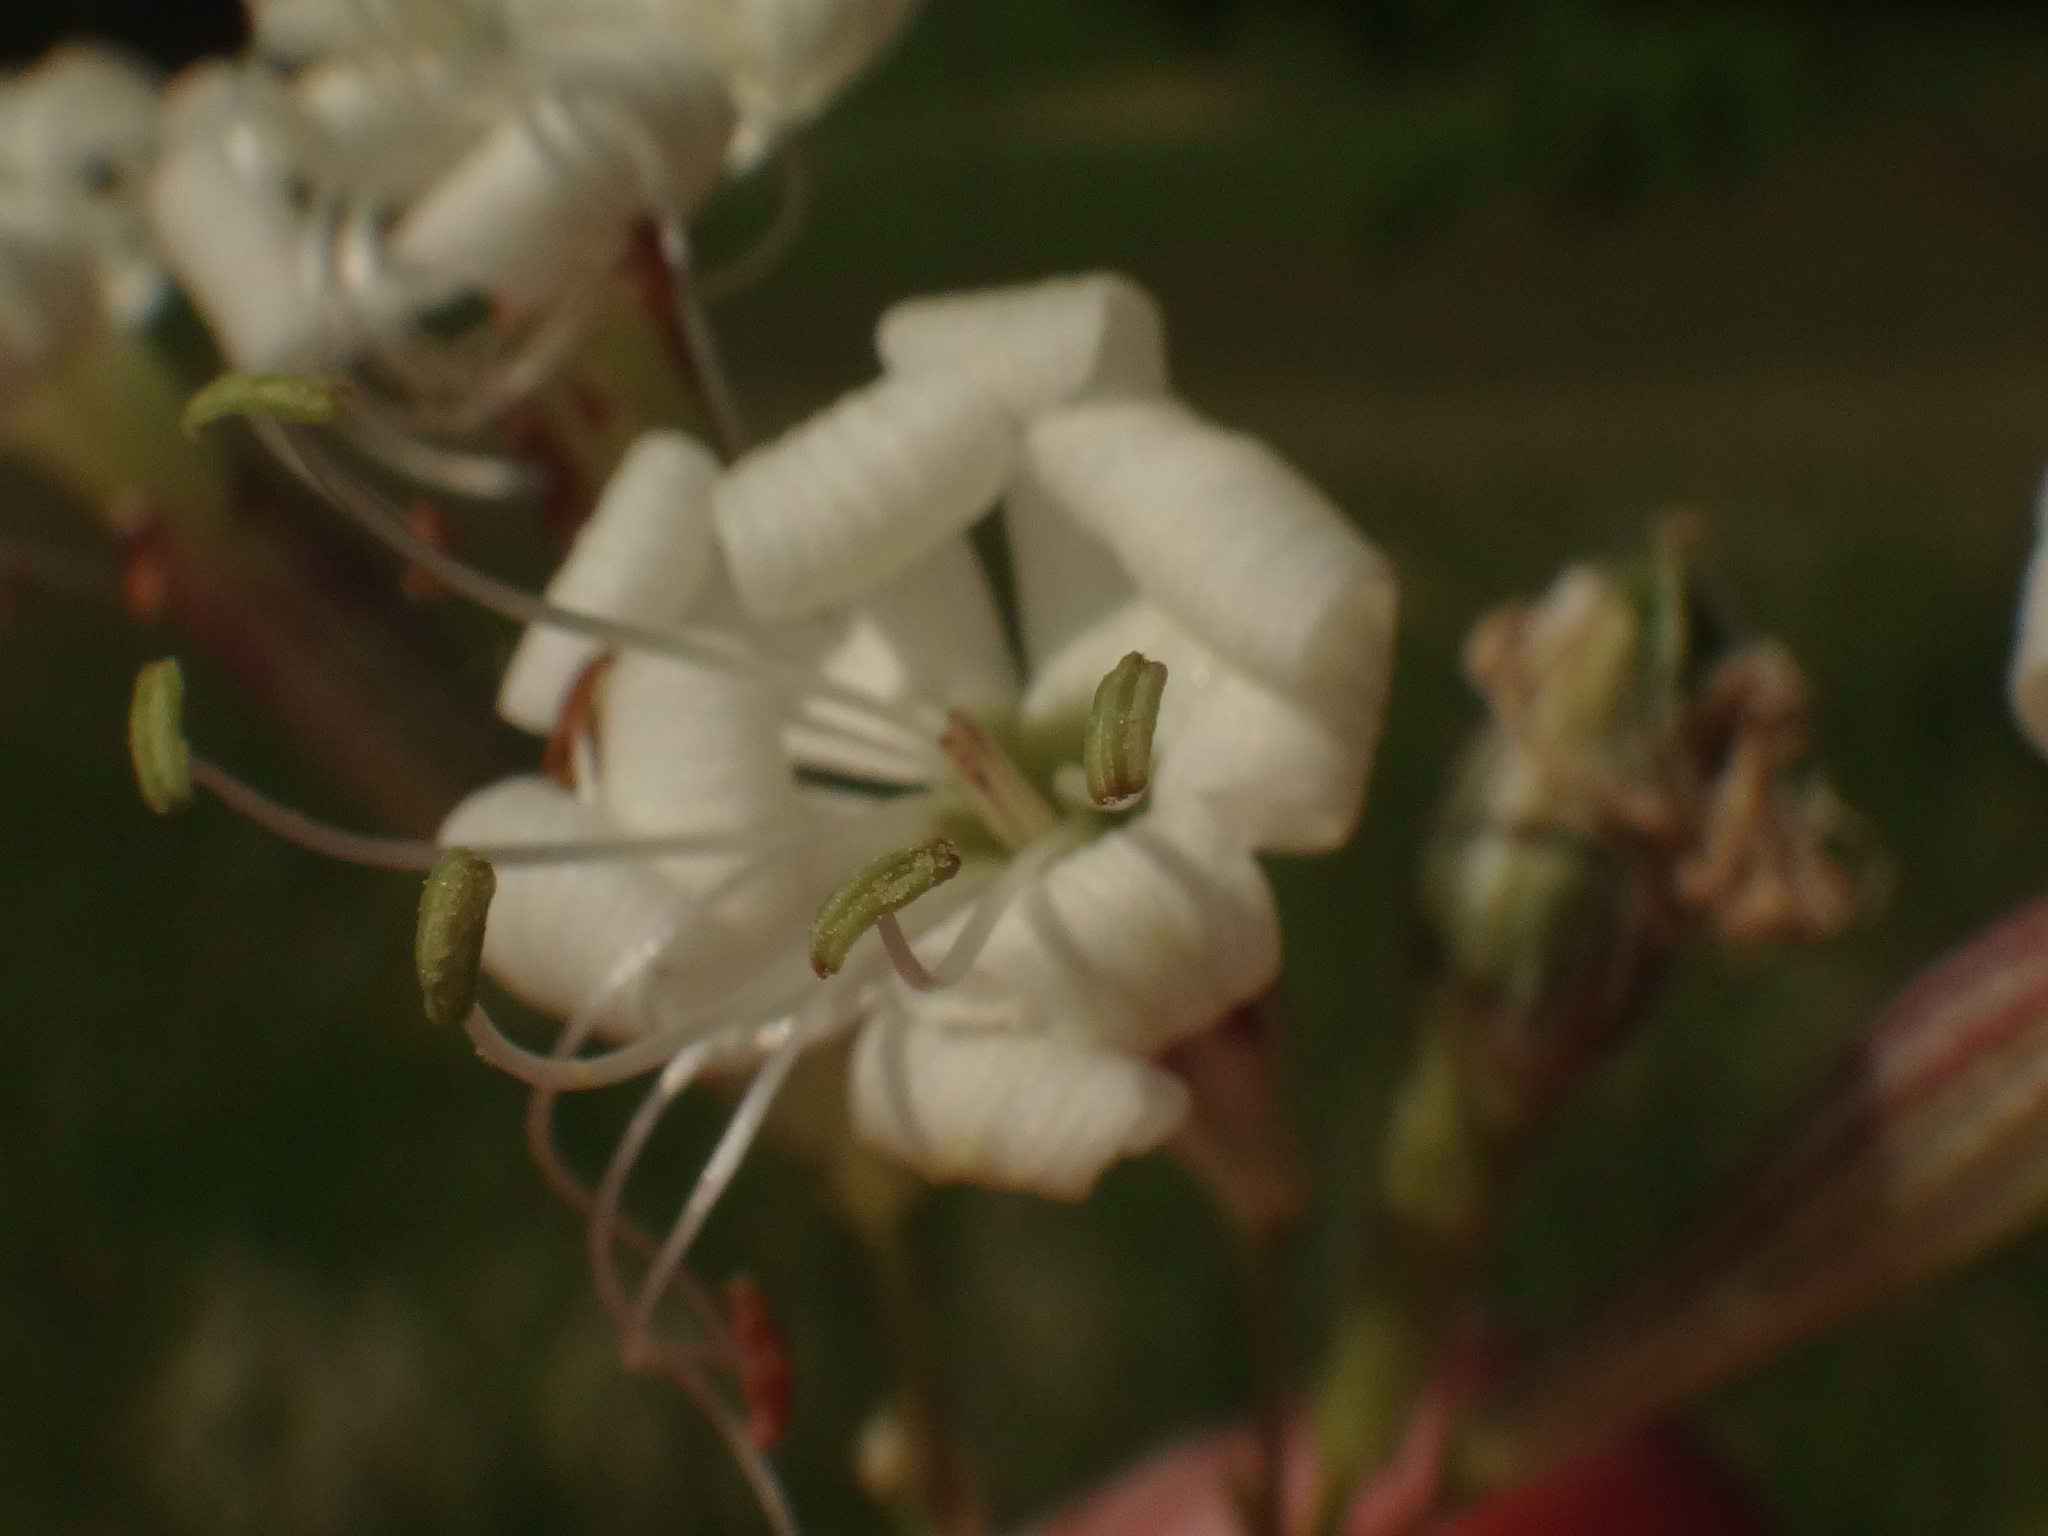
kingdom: Plantae
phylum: Tracheophyta
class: Magnoliopsida
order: Caryophyllales
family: Caryophyllaceae
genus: Silene
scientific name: Silene nemoralis
